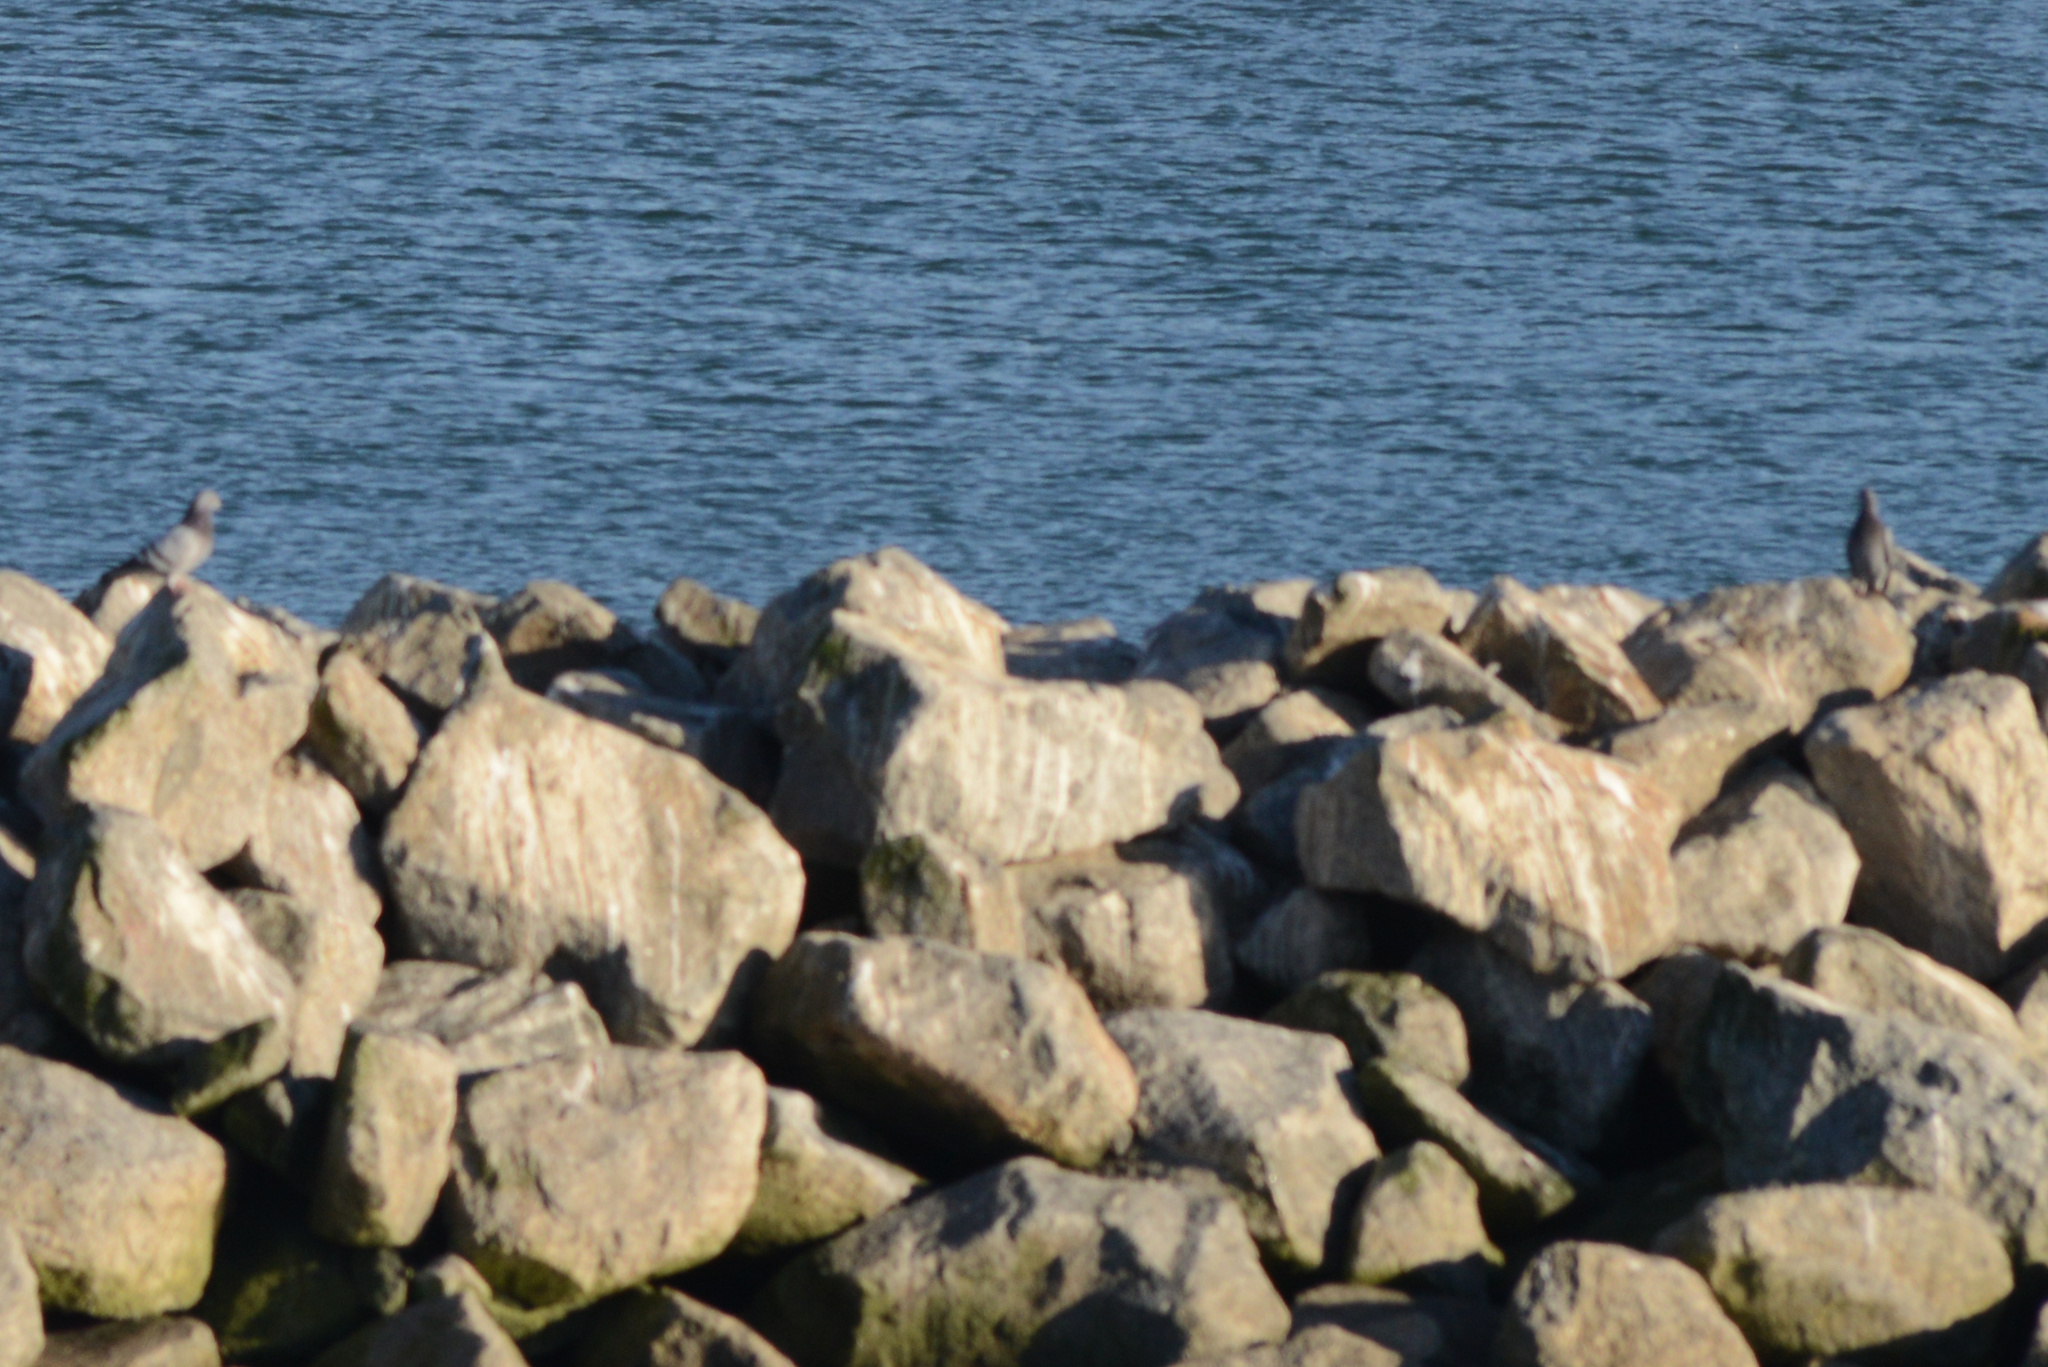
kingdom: Animalia
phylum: Chordata
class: Aves
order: Columbiformes
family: Columbidae
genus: Columba
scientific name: Columba livia
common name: Rock pigeon
